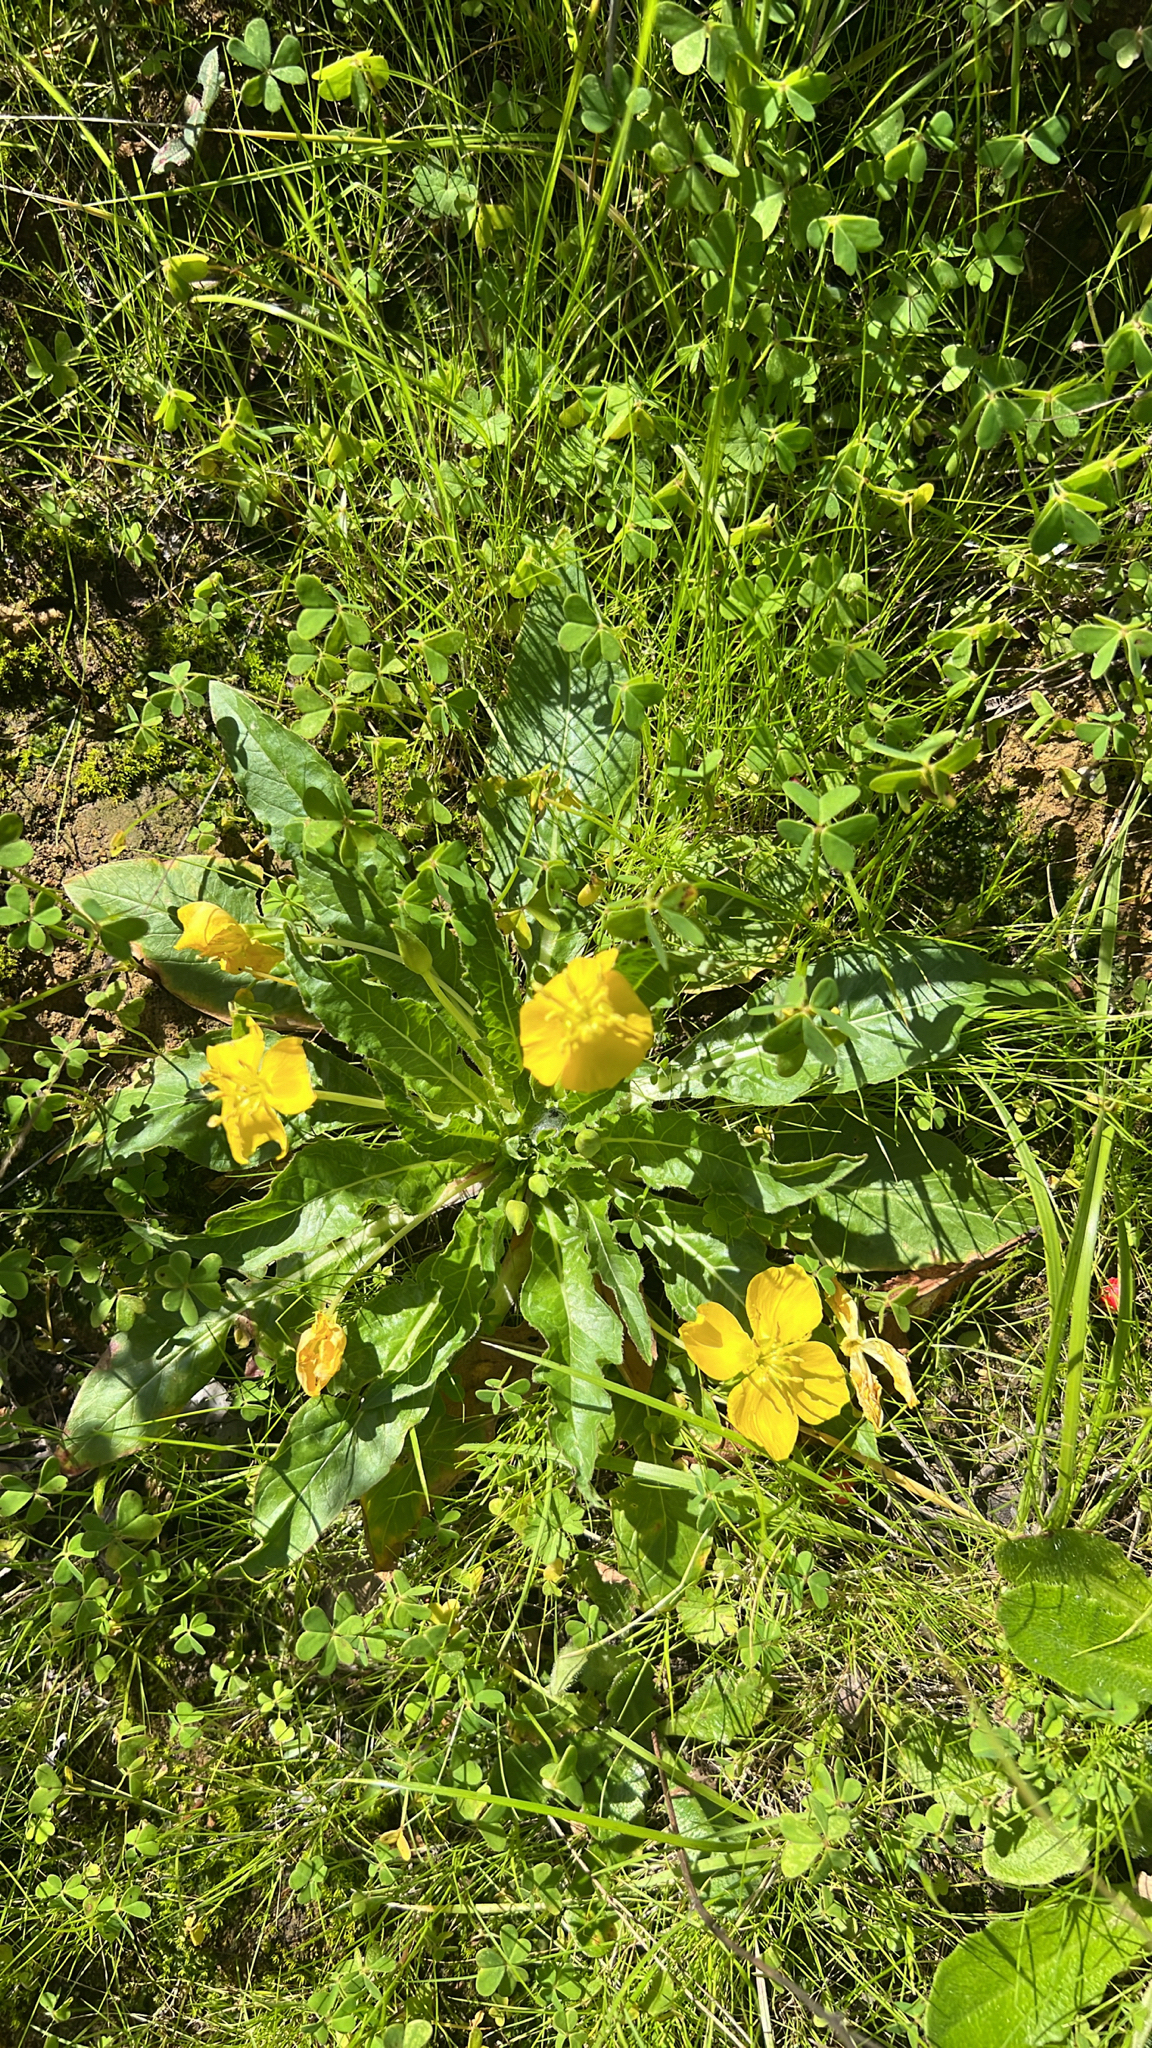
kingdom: Plantae
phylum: Tracheophyta
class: Magnoliopsida
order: Myrtales
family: Onagraceae
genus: Taraxia
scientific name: Taraxia ovata
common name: Goldeneggs
